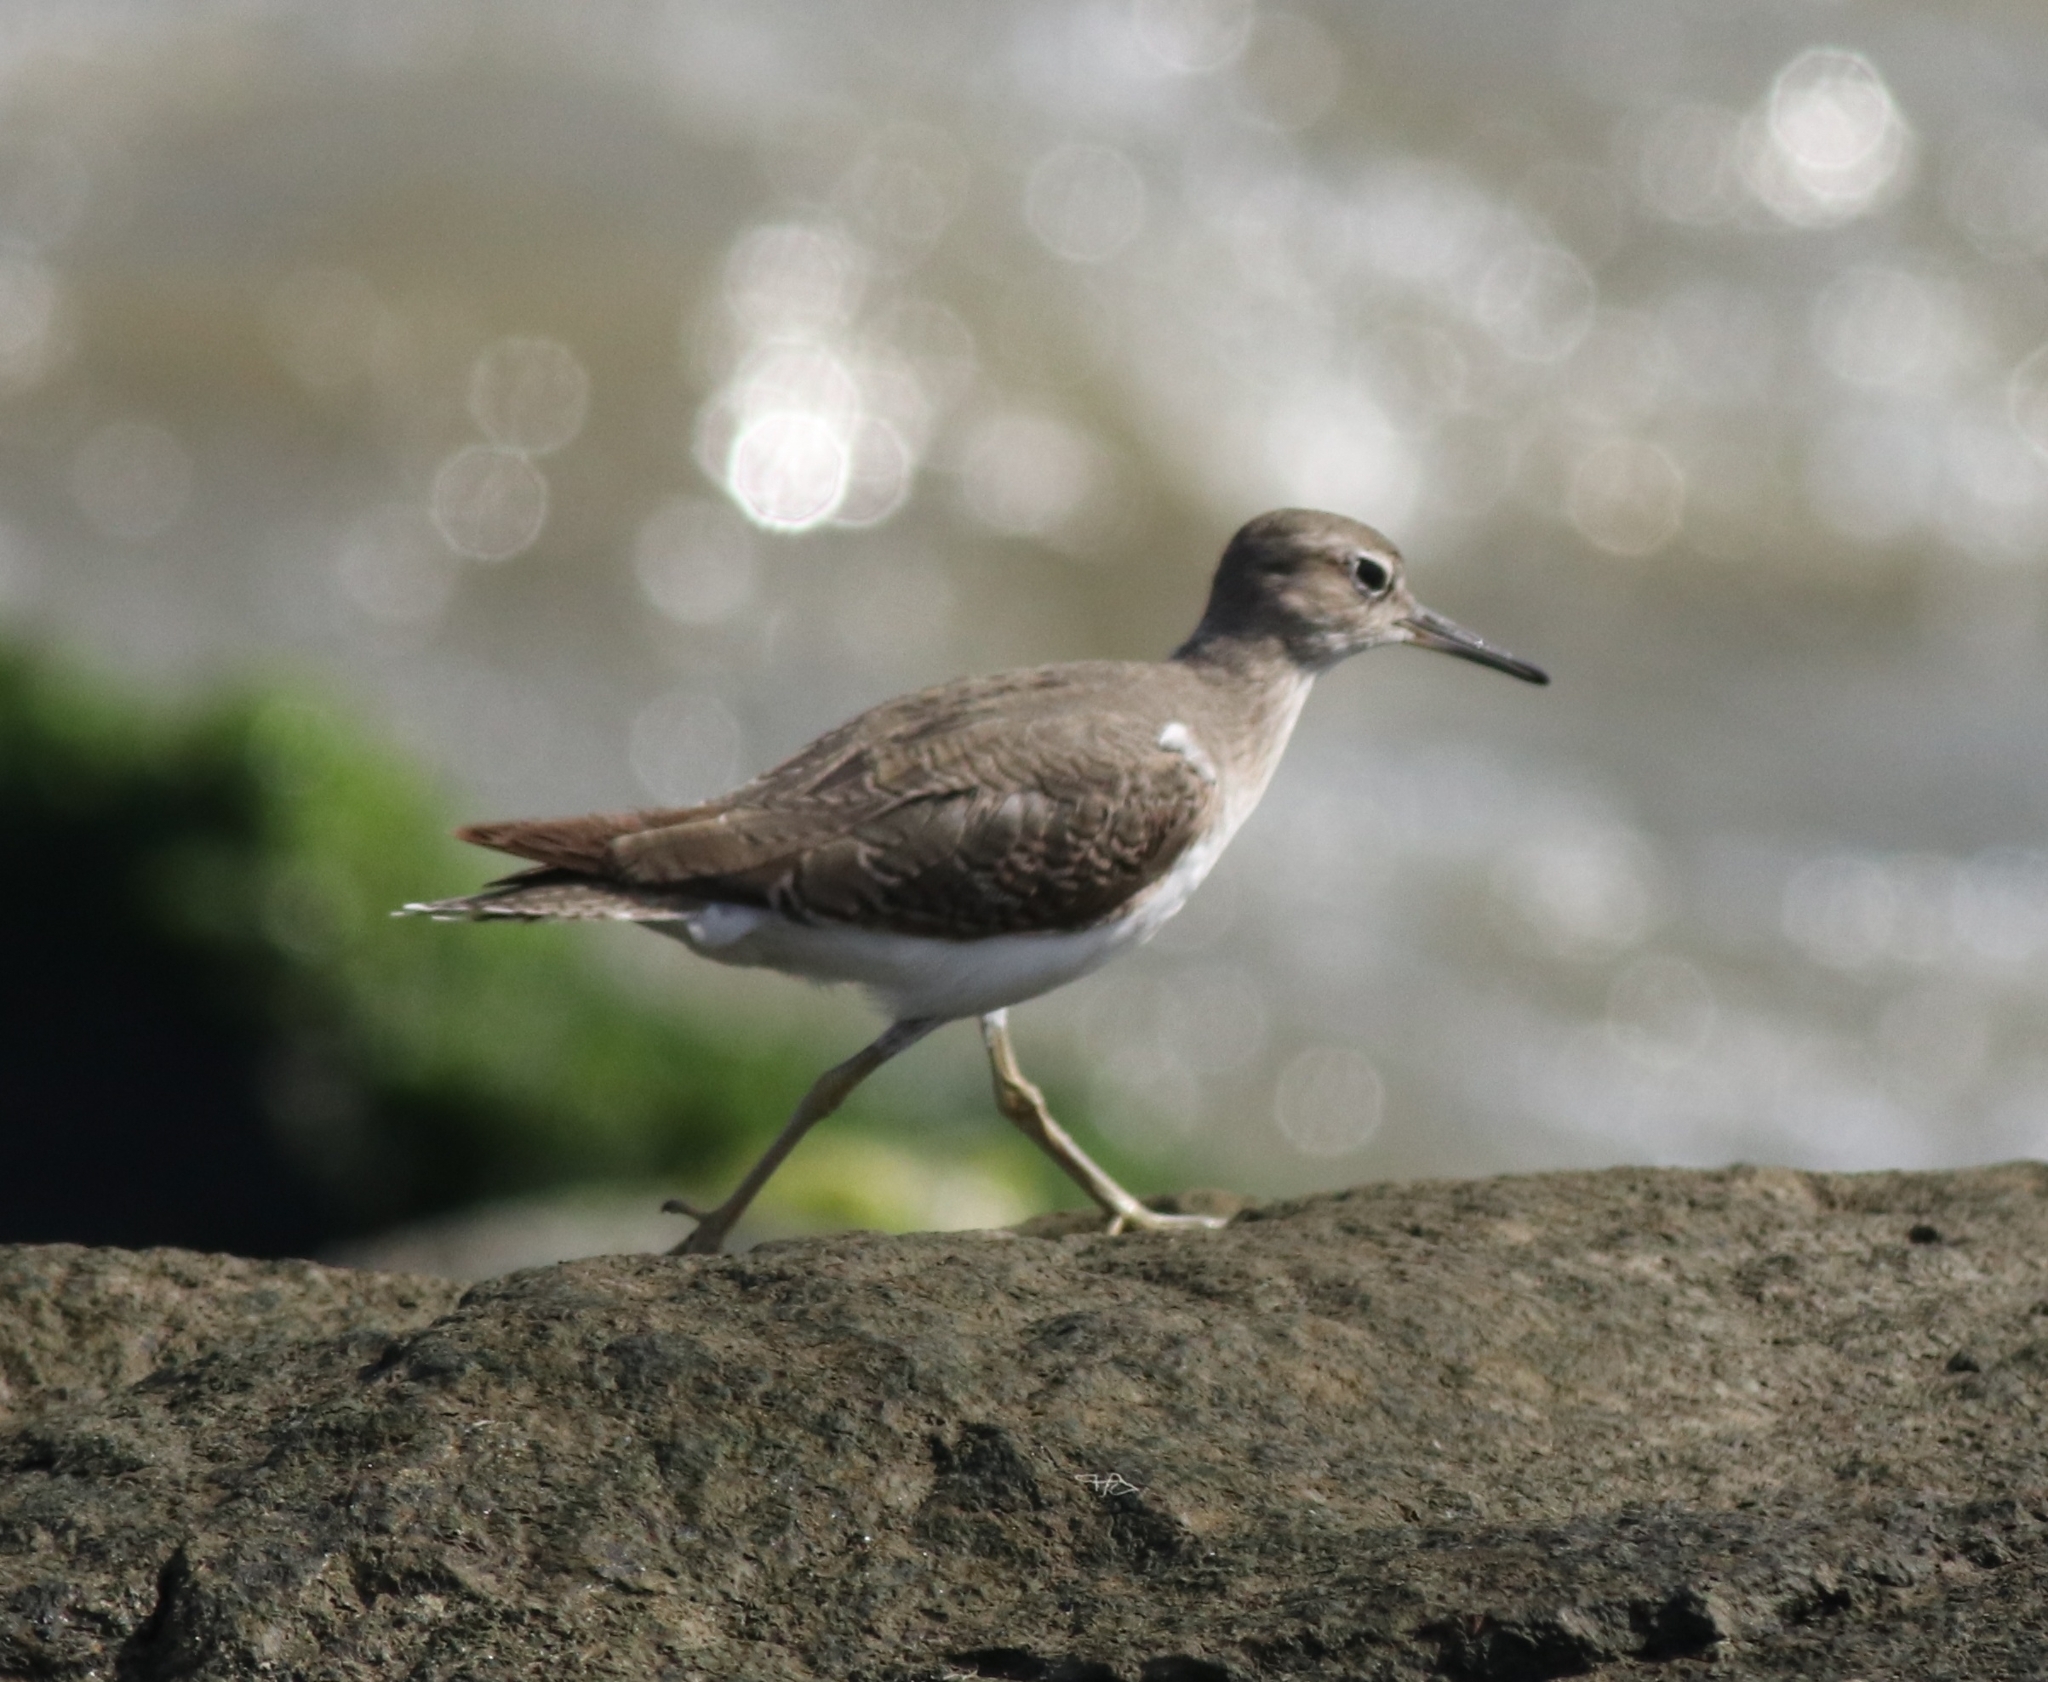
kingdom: Animalia
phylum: Chordata
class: Aves
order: Charadriiformes
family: Scolopacidae
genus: Actitis
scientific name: Actitis hypoleucos
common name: Common sandpiper
